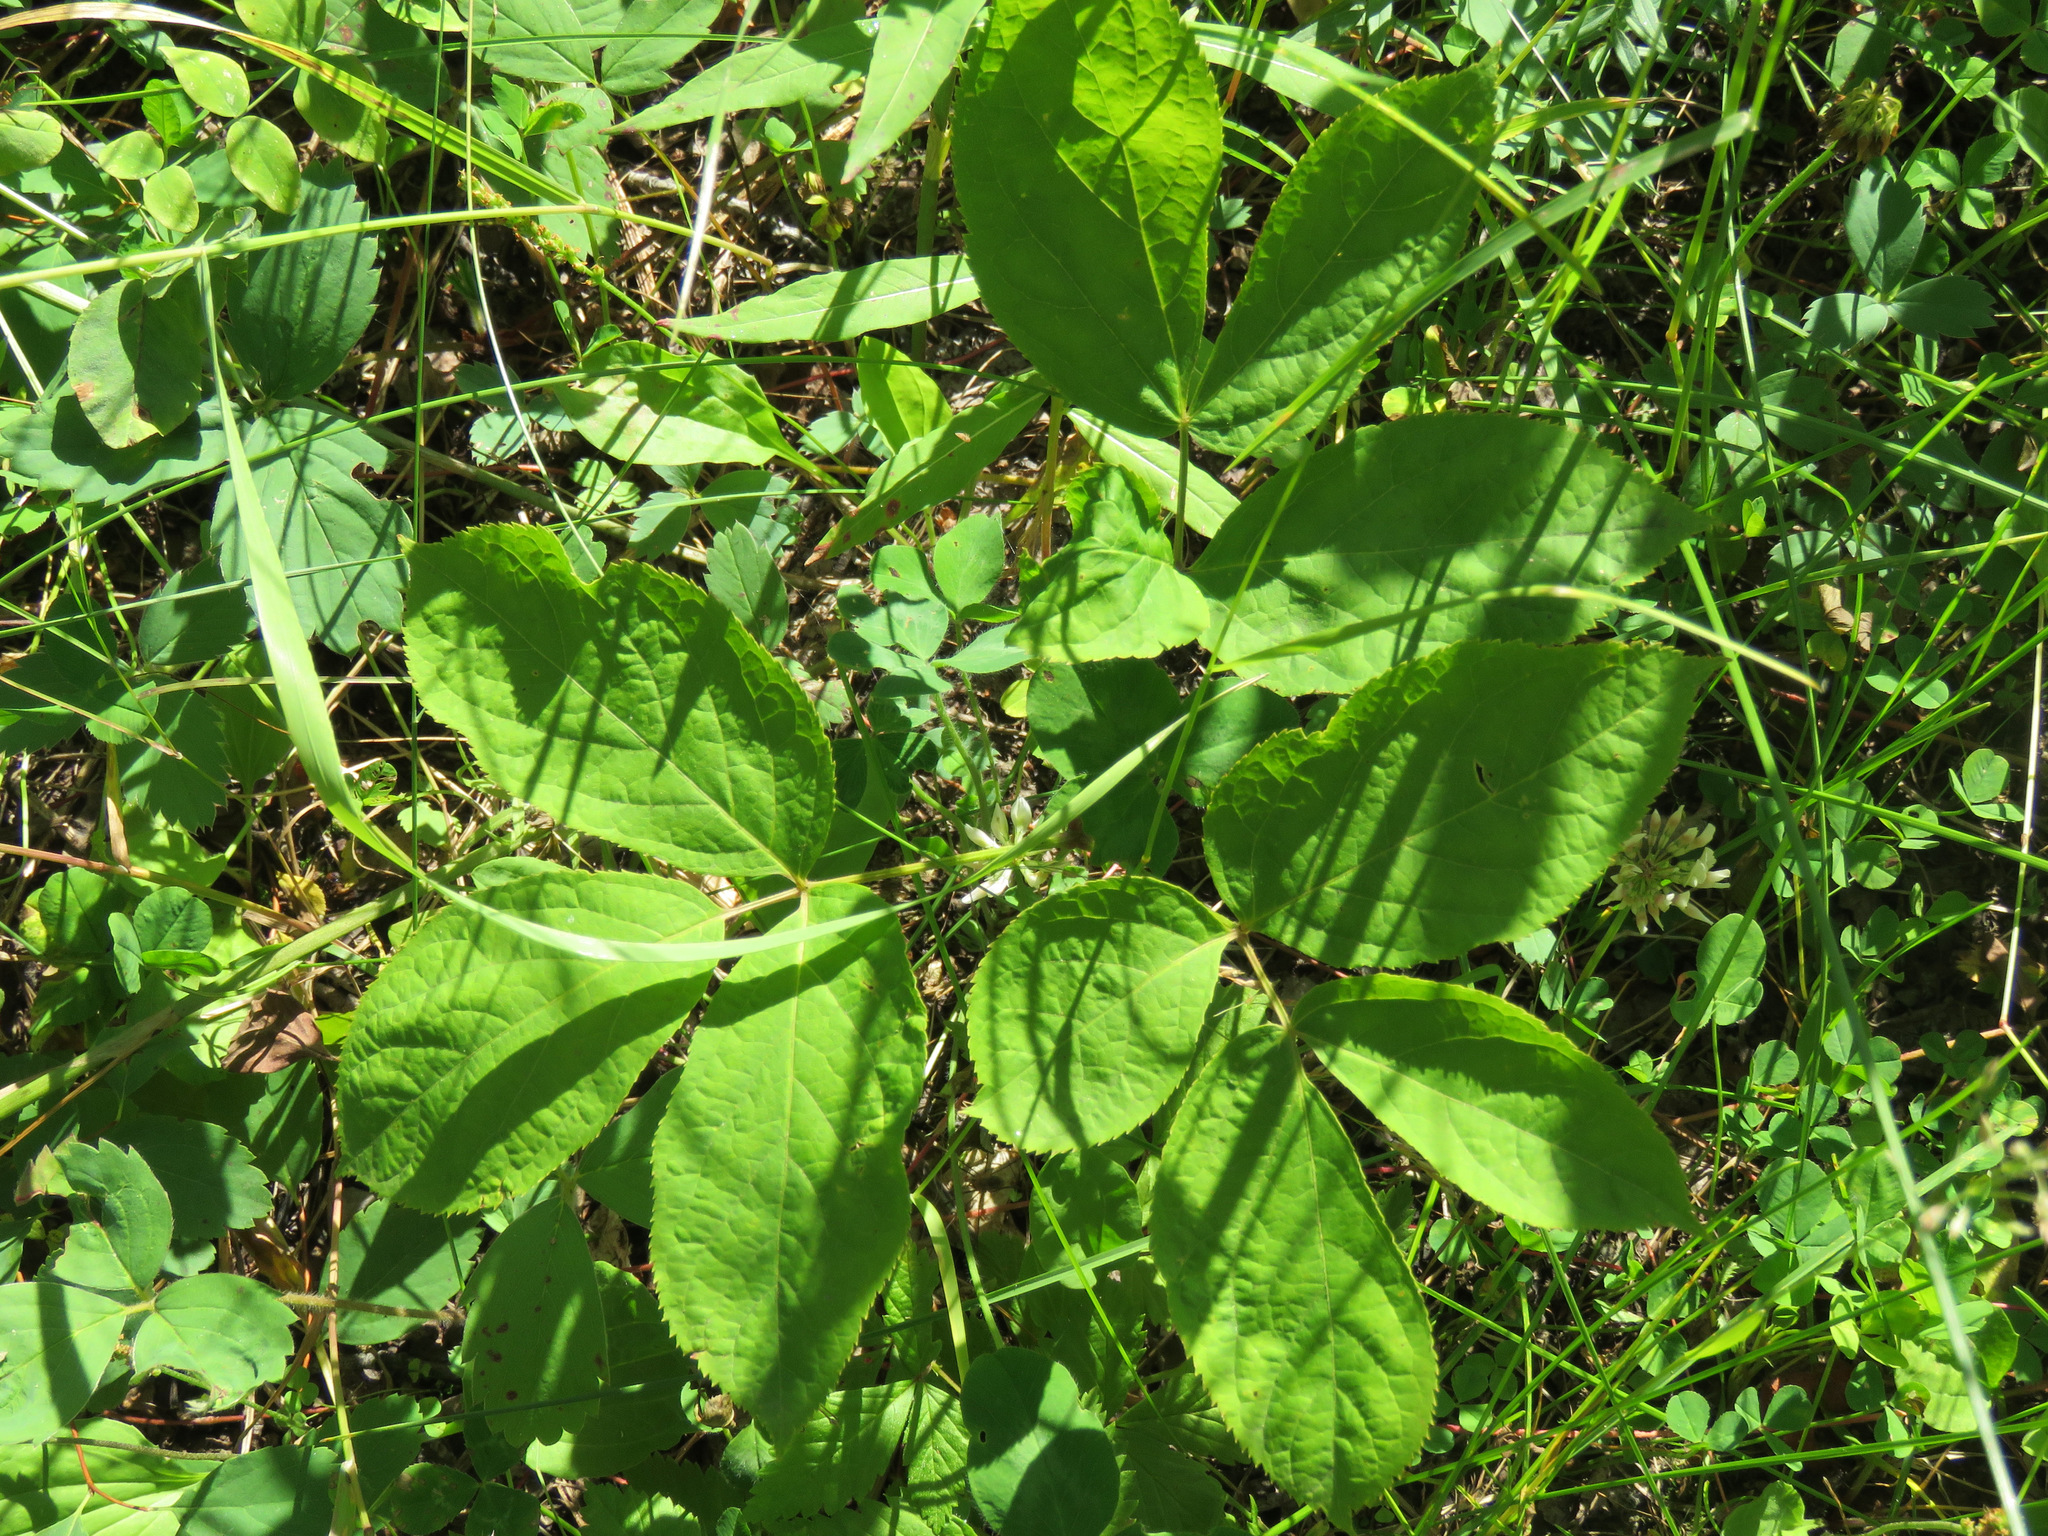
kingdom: Plantae
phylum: Tracheophyta
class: Magnoliopsida
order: Apiales
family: Araliaceae
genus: Aralia
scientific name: Aralia nudicaulis
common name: Wild sarsaparilla
